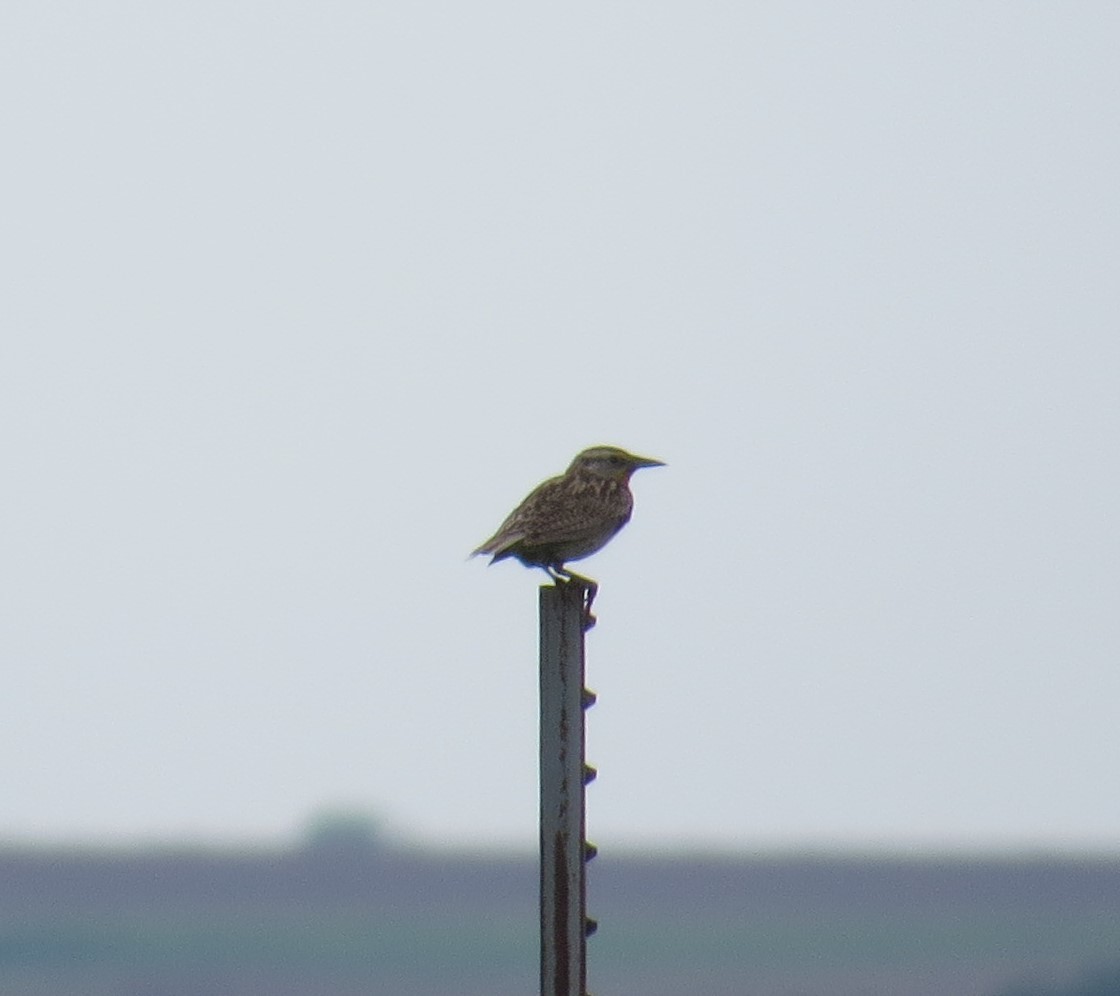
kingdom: Animalia
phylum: Chordata
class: Aves
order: Passeriformes
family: Icteridae
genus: Sturnella
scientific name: Sturnella neglecta
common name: Western meadowlark
